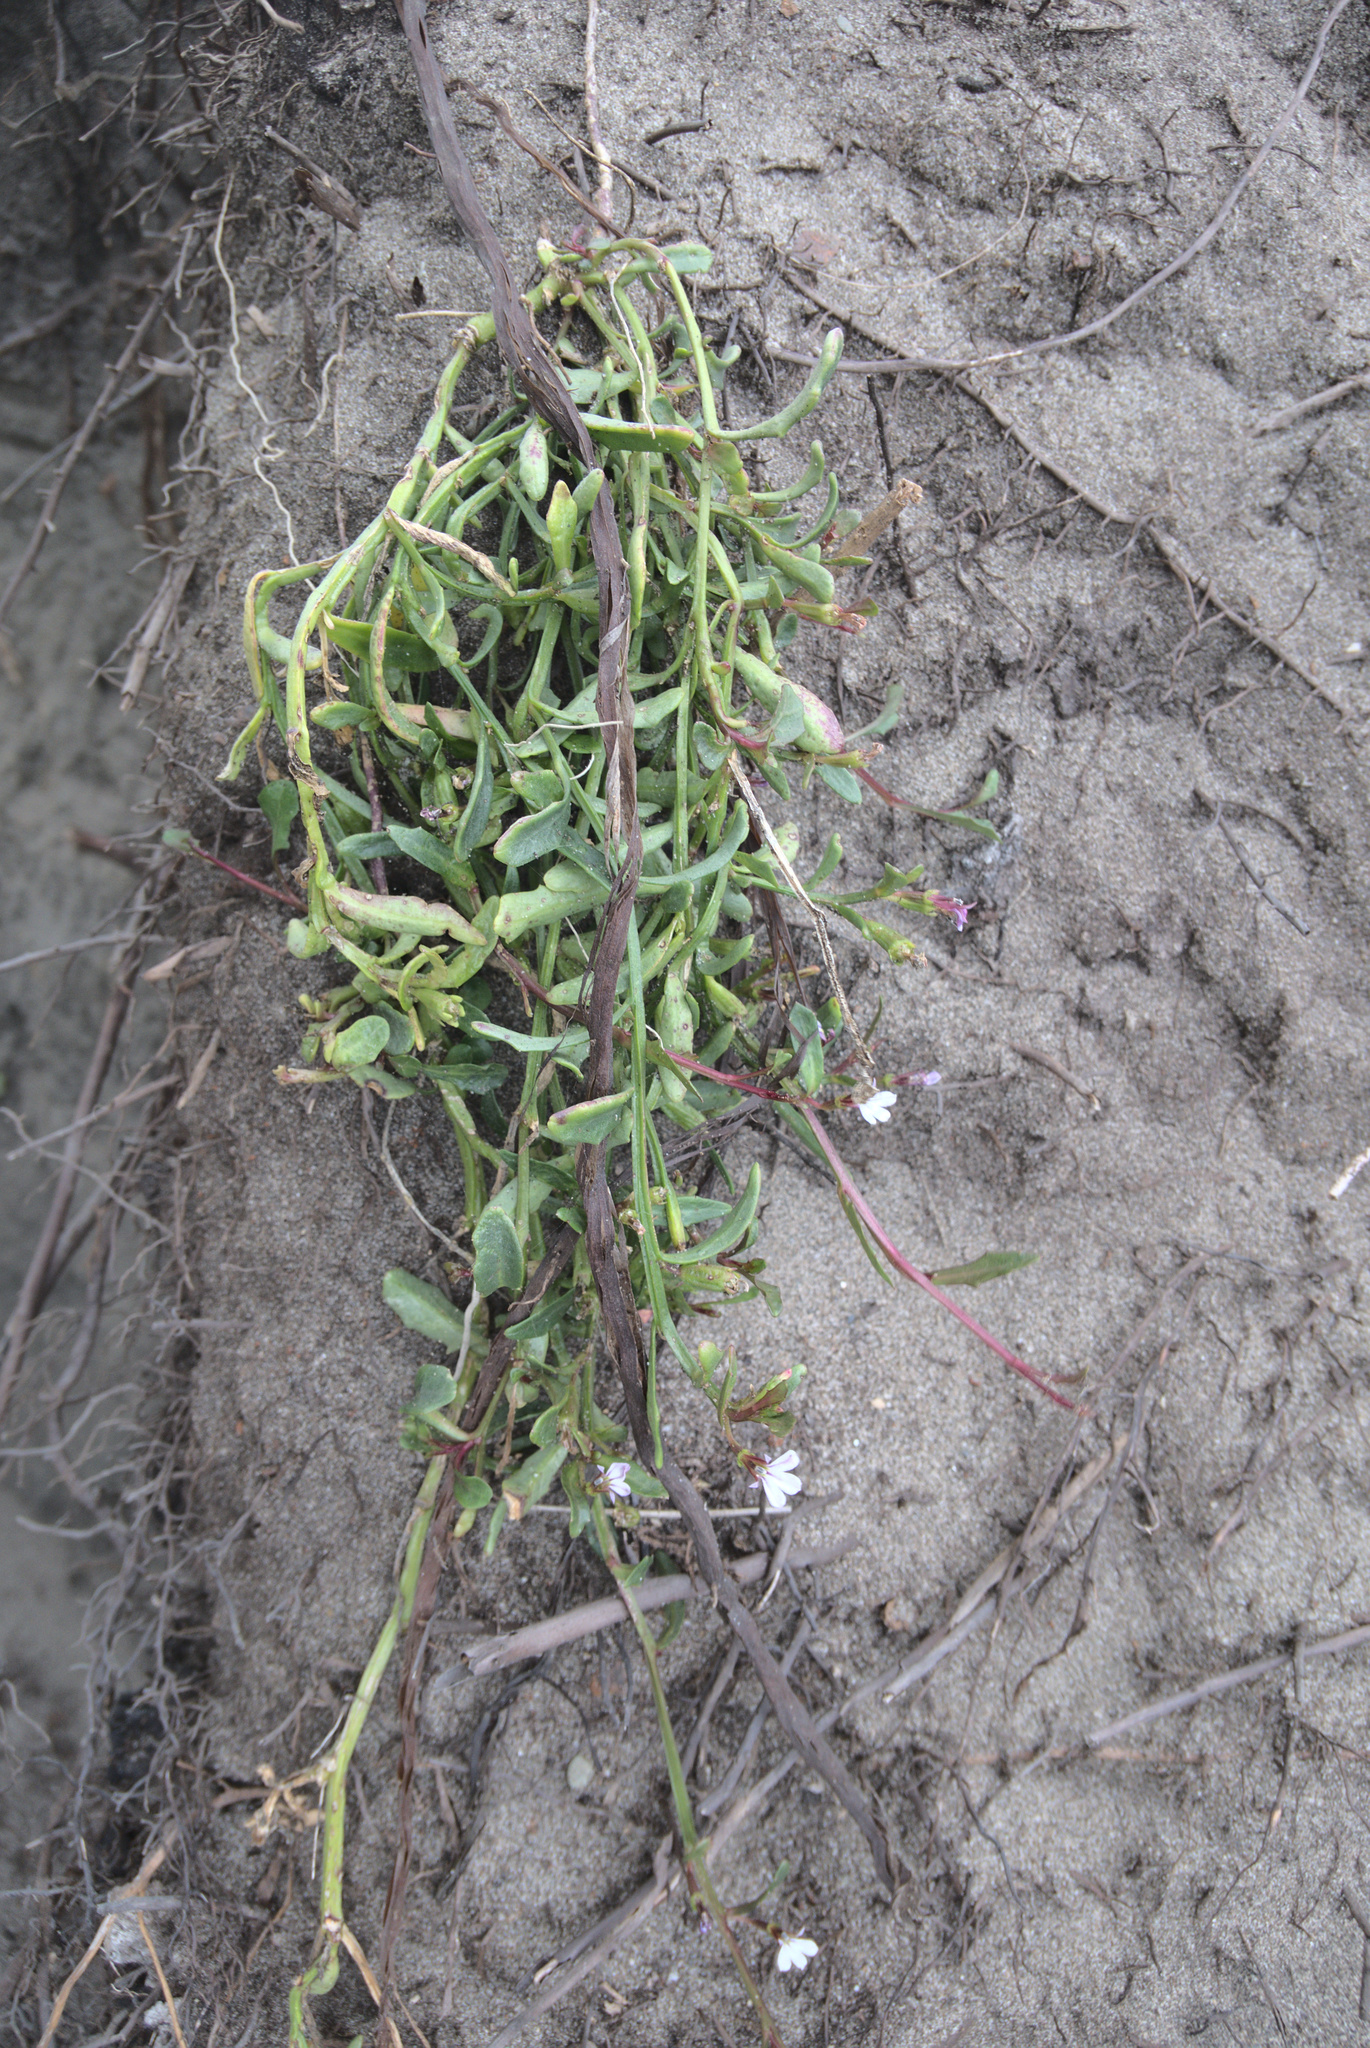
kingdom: Plantae
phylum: Tracheophyta
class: Magnoliopsida
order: Asterales
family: Campanulaceae
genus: Lobelia
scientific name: Lobelia anceps
